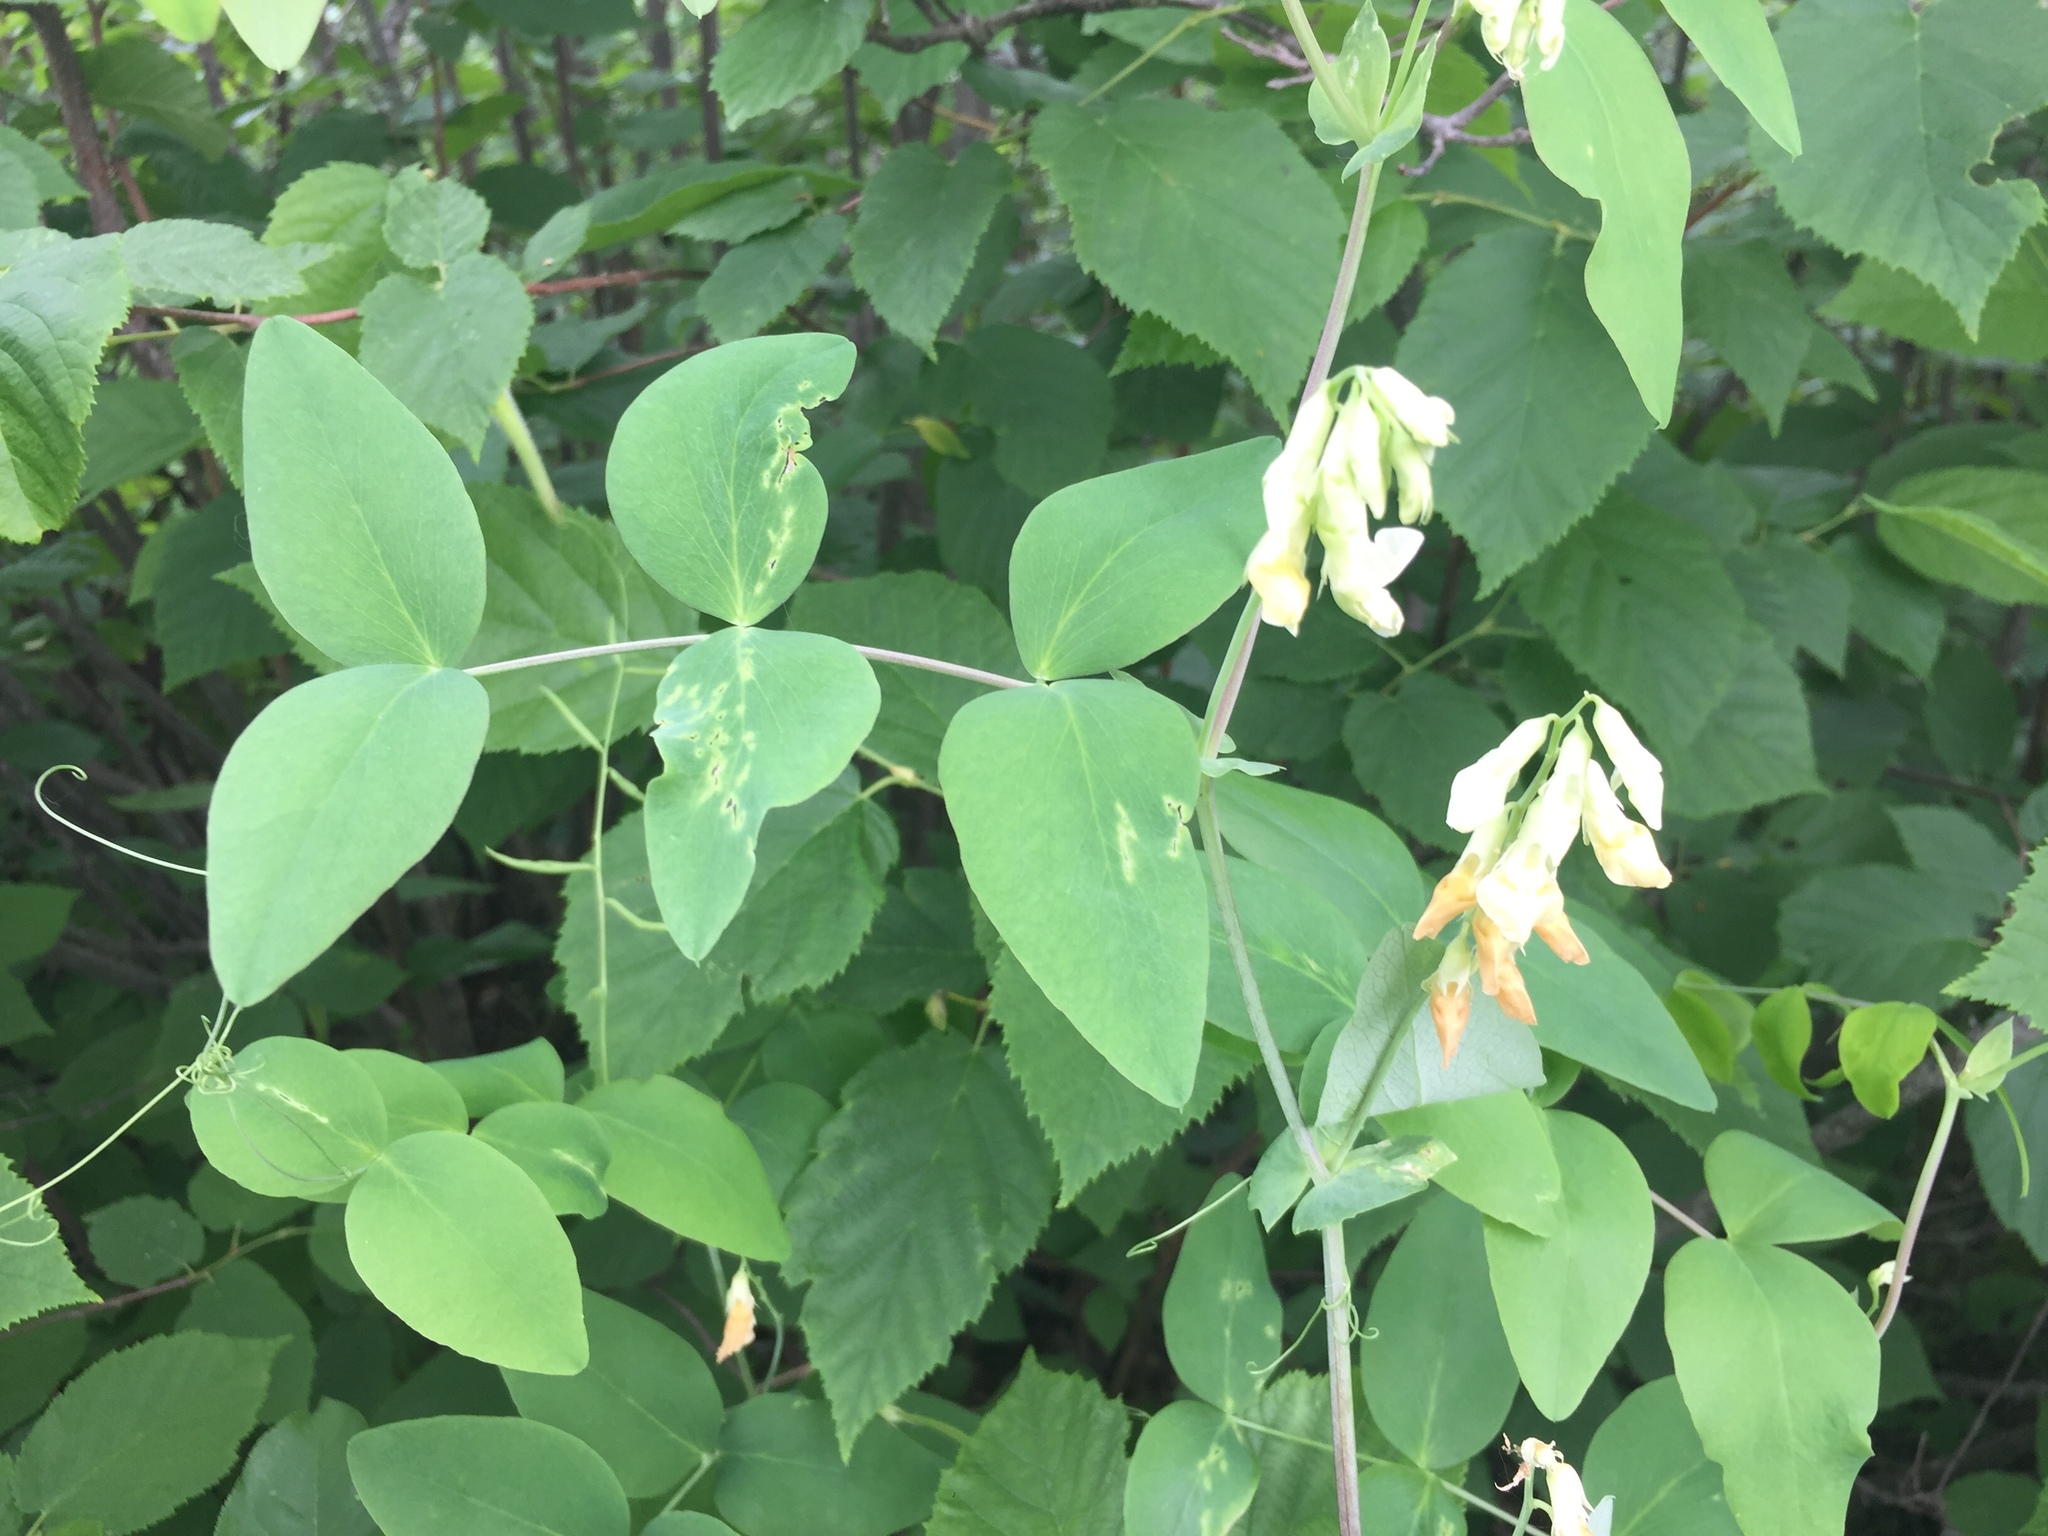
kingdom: Plantae
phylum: Tracheophyta
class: Magnoliopsida
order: Fabales
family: Fabaceae
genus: Lathyrus
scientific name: Lathyrus ochroleucus
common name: Pale vetchling
